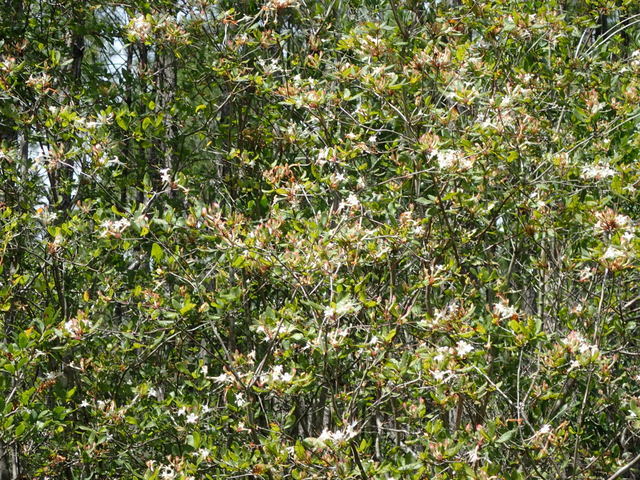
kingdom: Plantae
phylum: Tracheophyta
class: Magnoliopsida
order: Ericales
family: Ericaceae
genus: Rhododendron
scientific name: Rhododendron serrulatum
